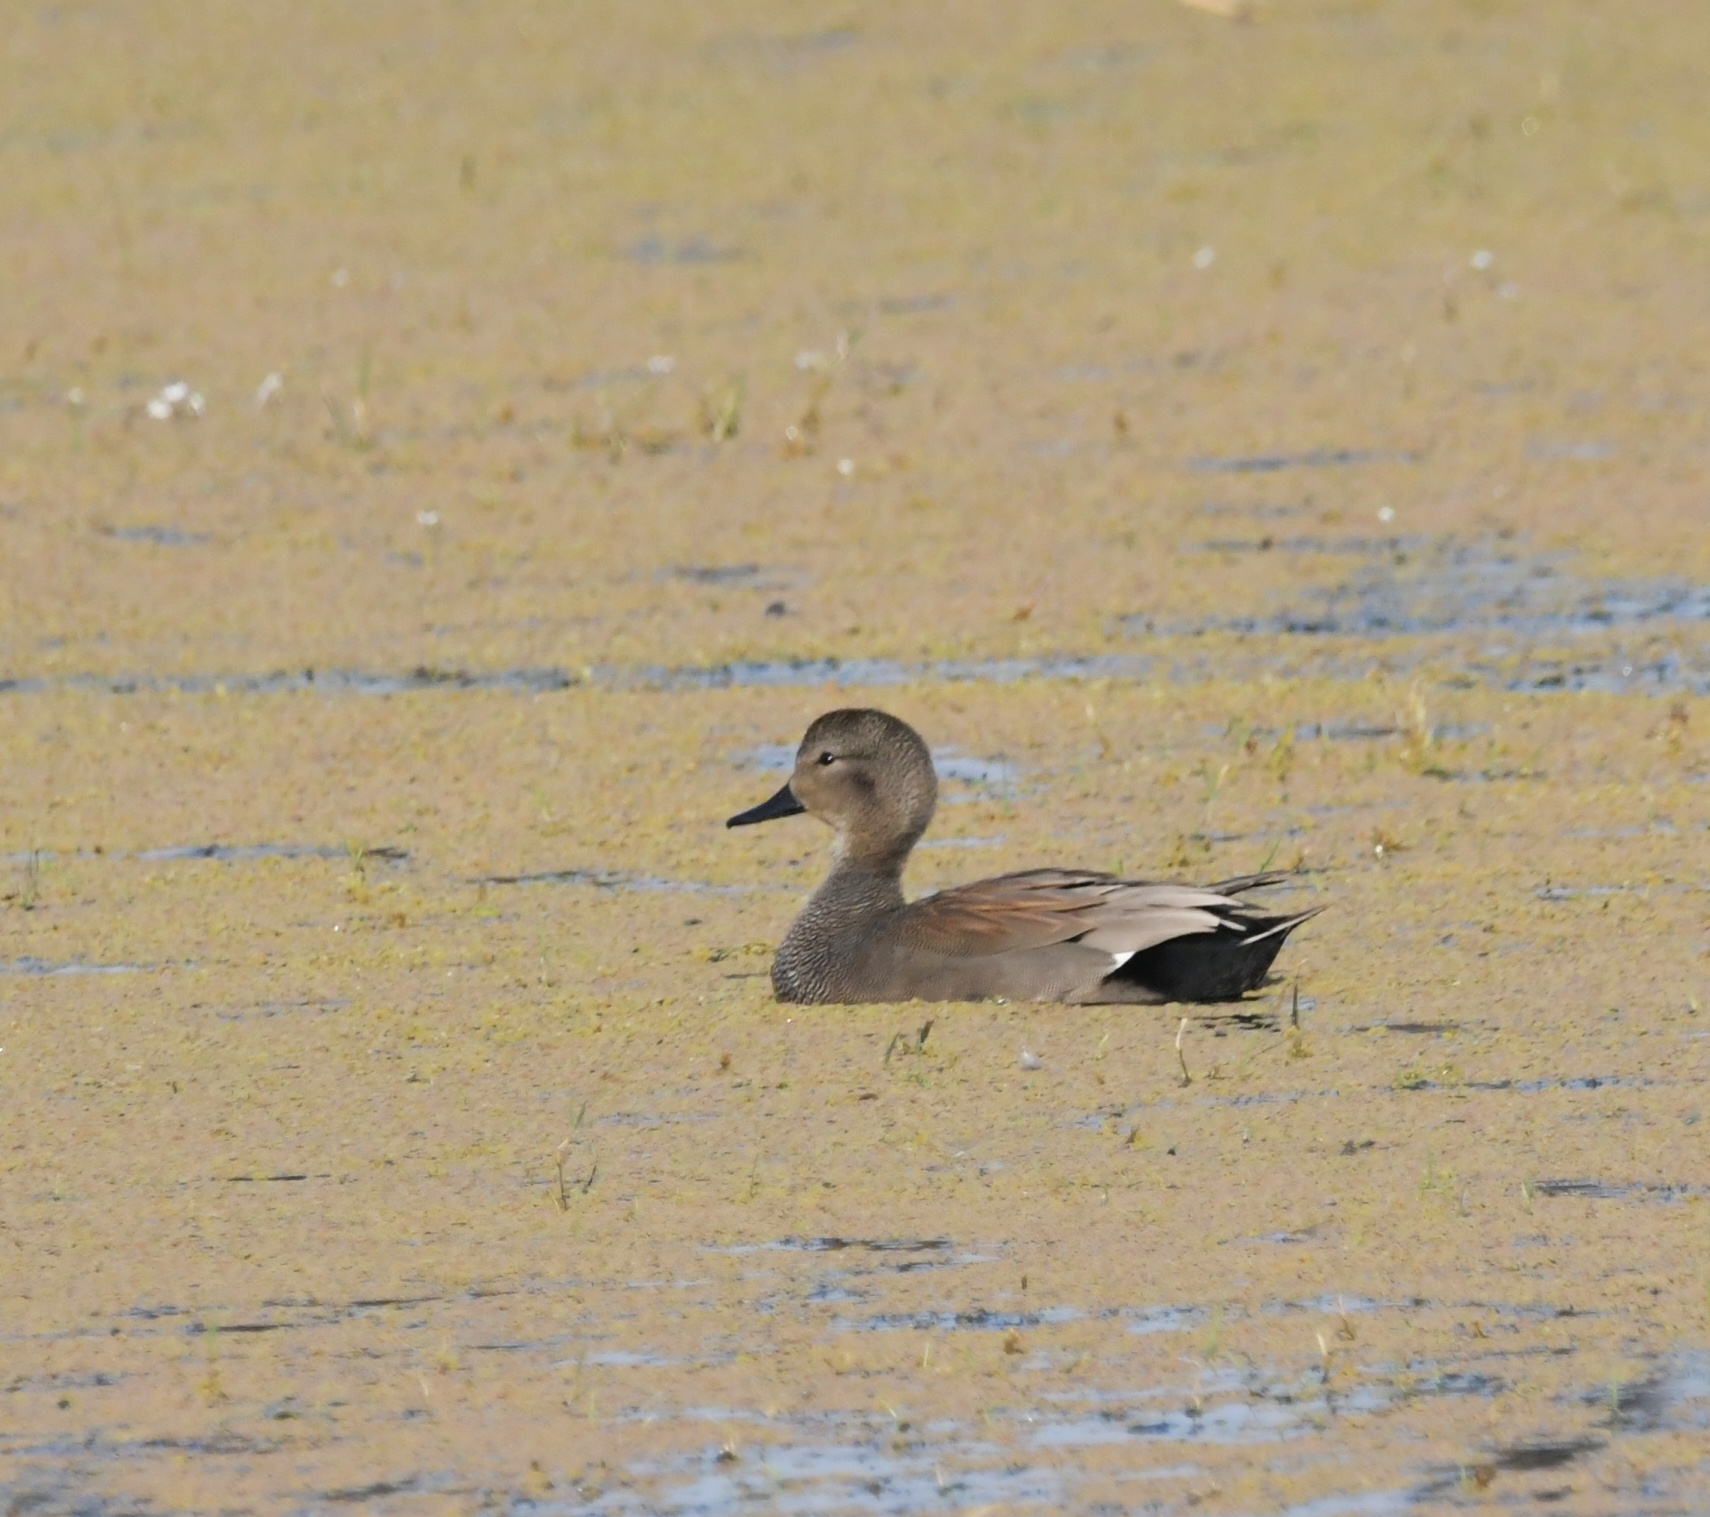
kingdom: Animalia
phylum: Chordata
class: Aves
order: Anseriformes
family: Anatidae
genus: Mareca
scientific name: Mareca strepera
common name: Gadwall
